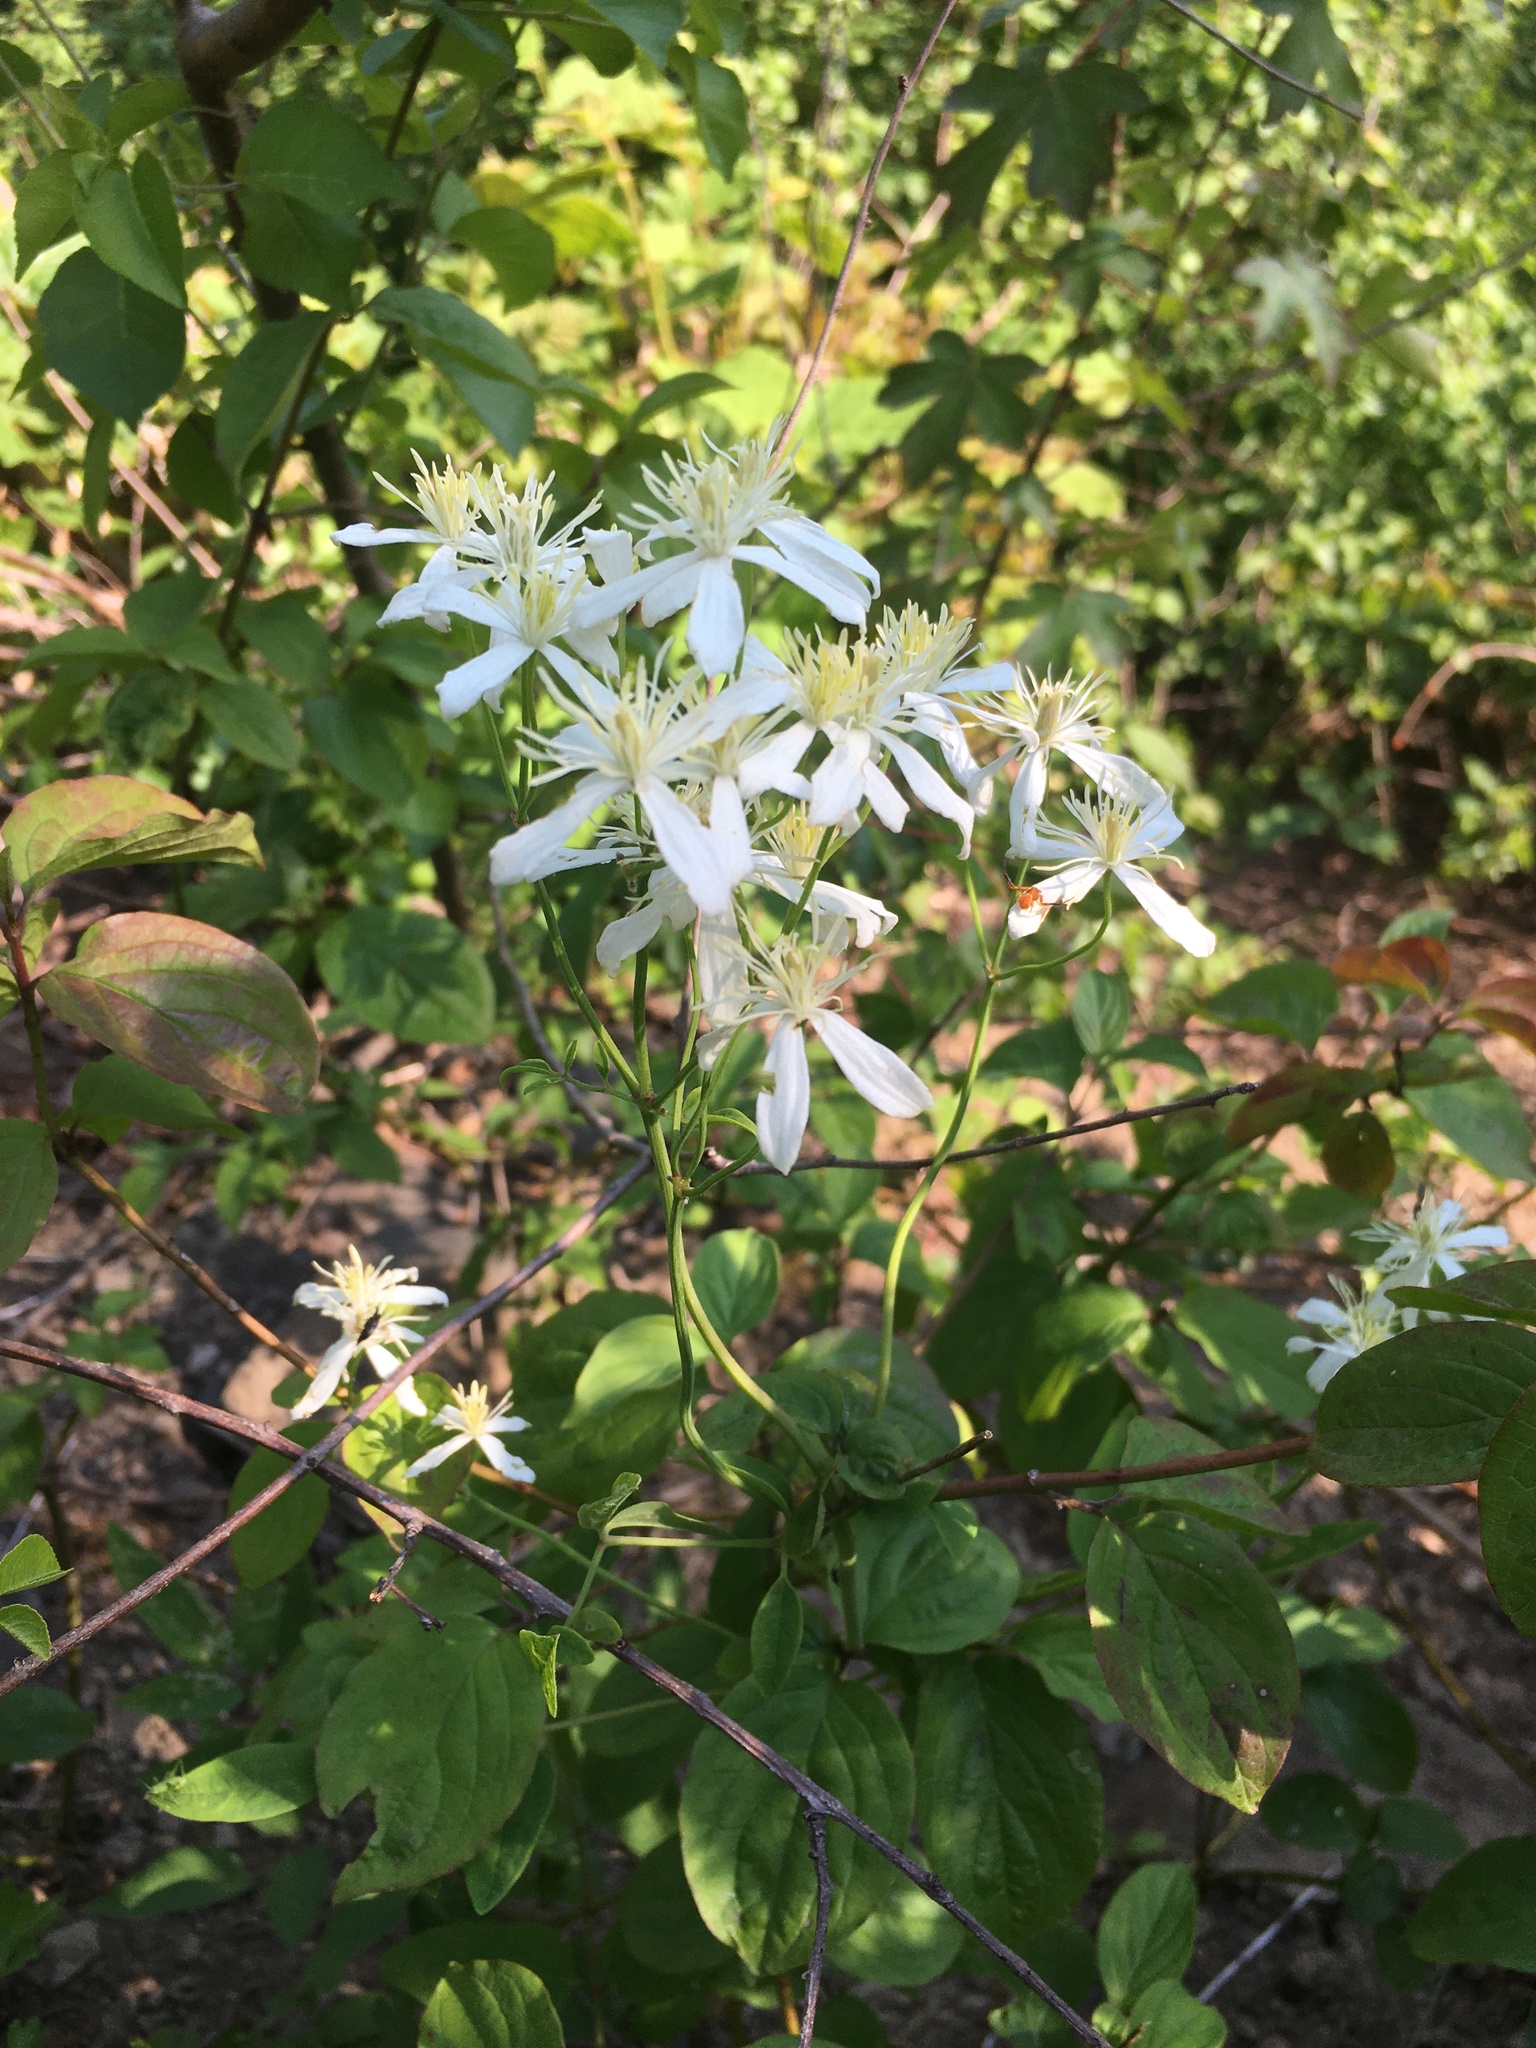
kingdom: Plantae
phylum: Tracheophyta
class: Magnoliopsida
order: Ranunculales
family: Ranunculaceae
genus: Clematis
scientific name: Clematis recta
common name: Ground clematis
